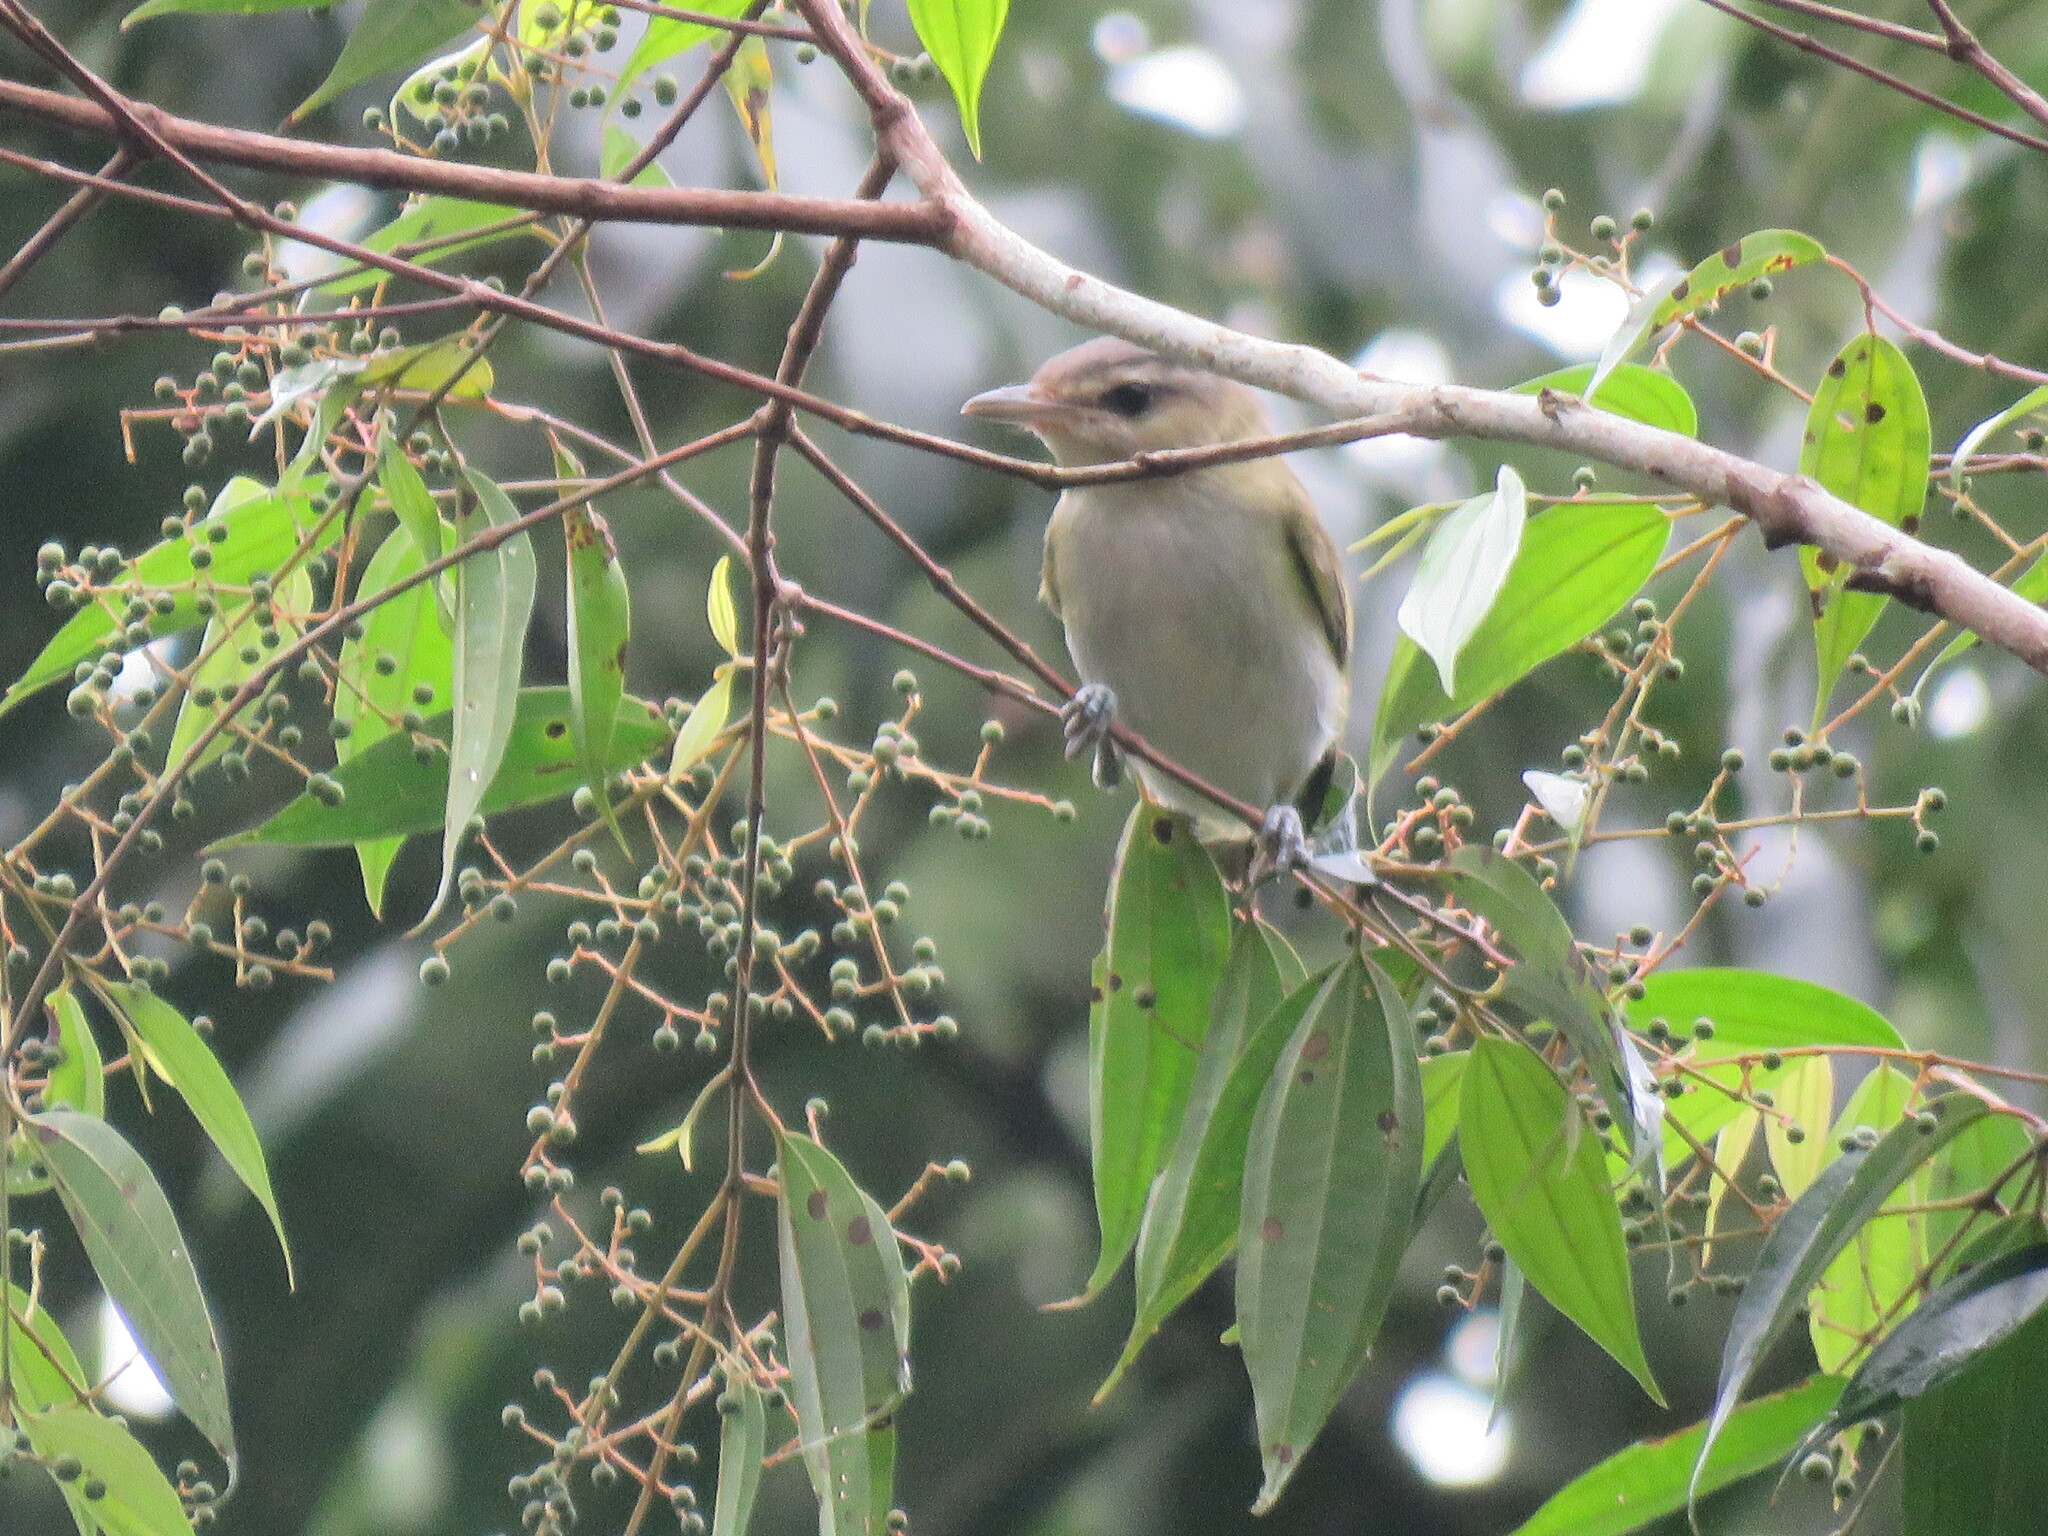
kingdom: Animalia
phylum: Chordata
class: Aves
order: Passeriformes
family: Vireonidae
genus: Vireo
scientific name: Vireo olivaceus
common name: Red-eyed vireo
